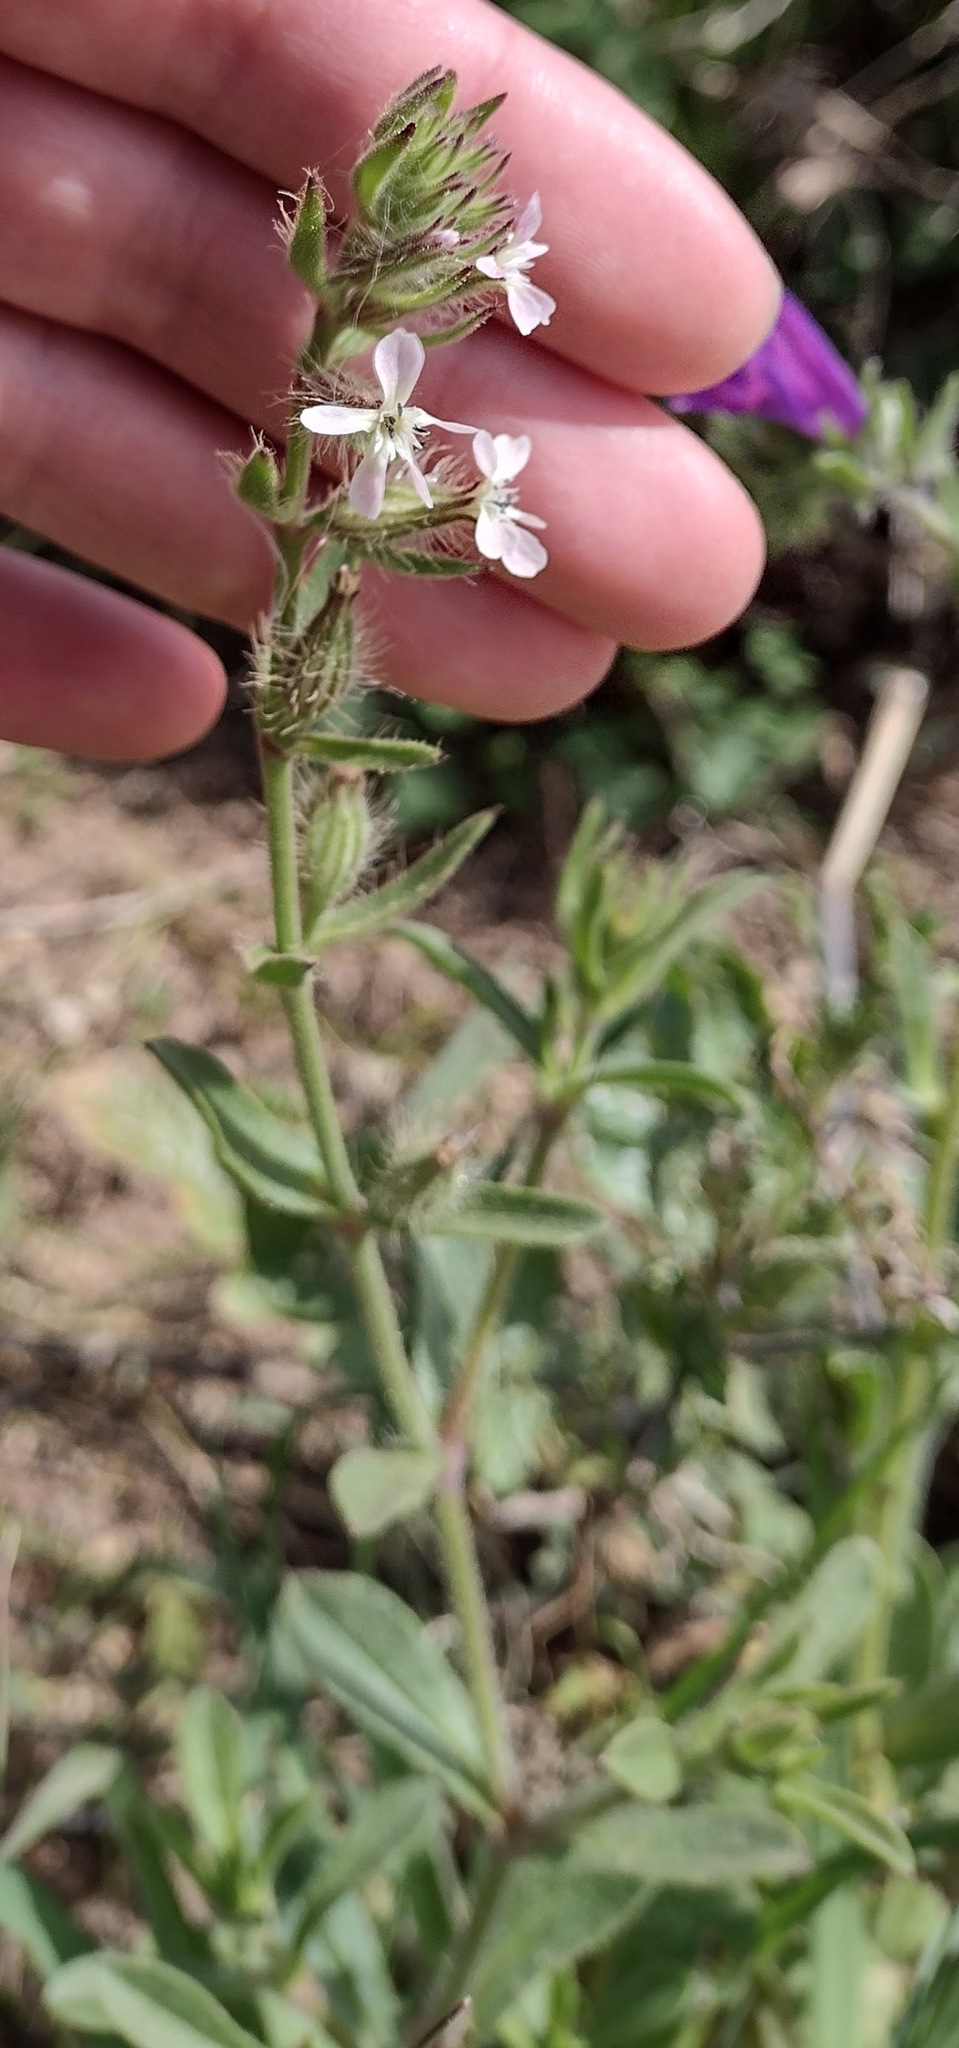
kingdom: Plantae
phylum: Tracheophyta
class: Magnoliopsida
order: Caryophyllales
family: Caryophyllaceae
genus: Silene
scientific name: Silene gallica
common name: Small-flowered catchfly
